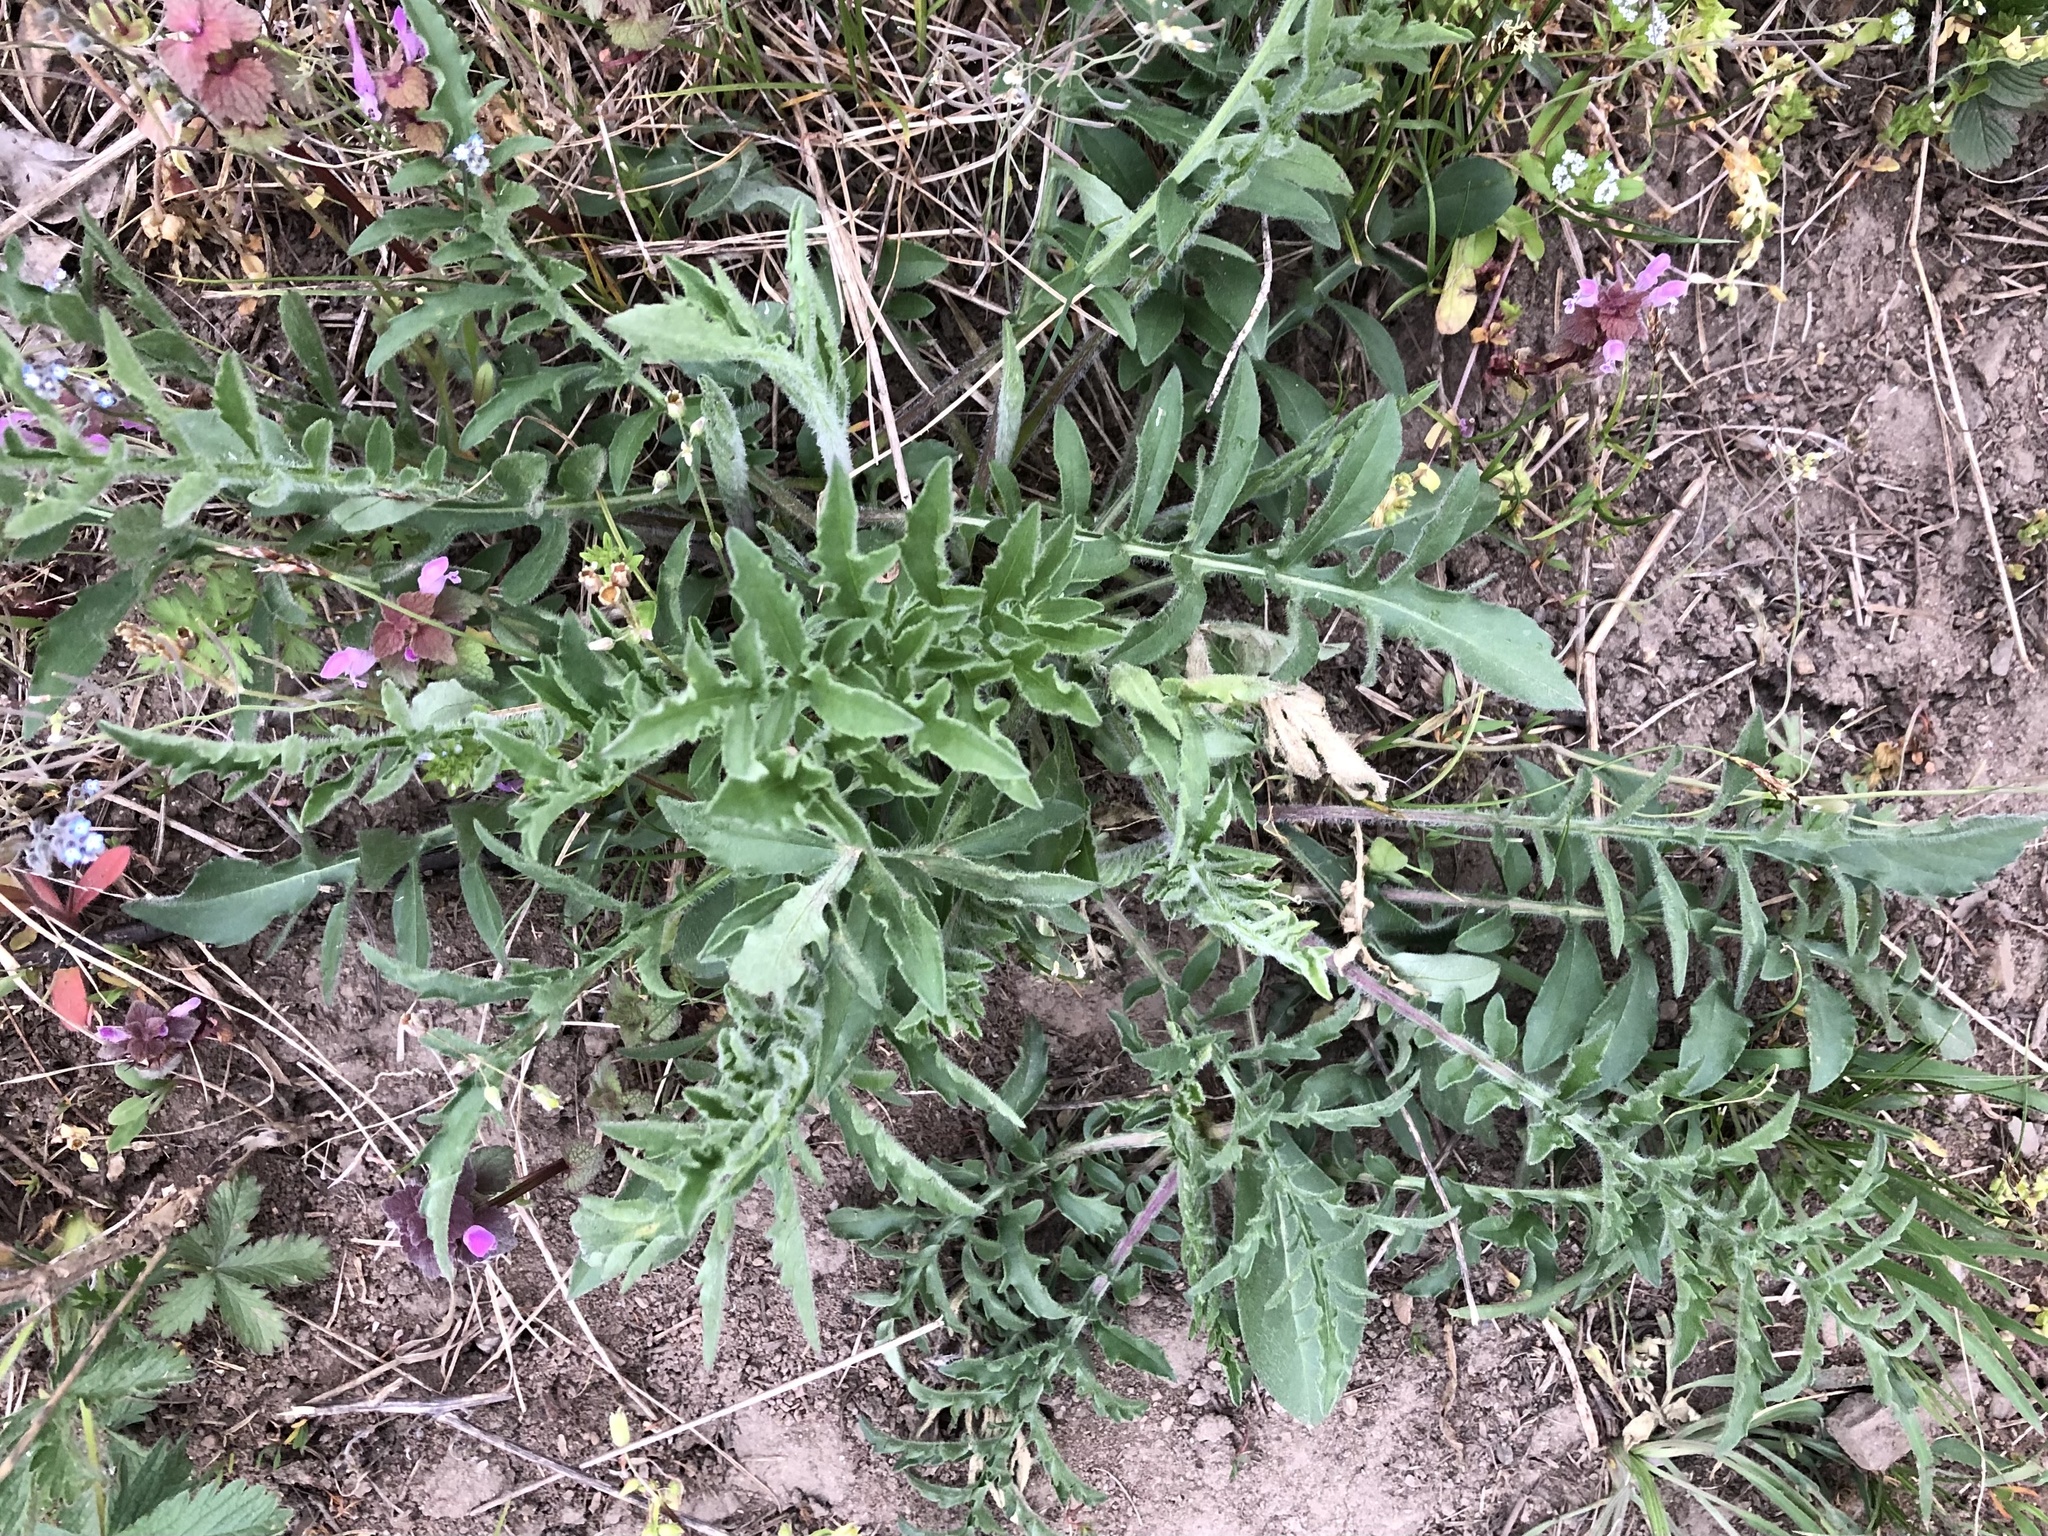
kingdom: Plantae
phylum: Tracheophyta
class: Magnoliopsida
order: Asterales
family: Asteraceae
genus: Centaurea
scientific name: Centaurea scabiosa
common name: Greater knapweed
